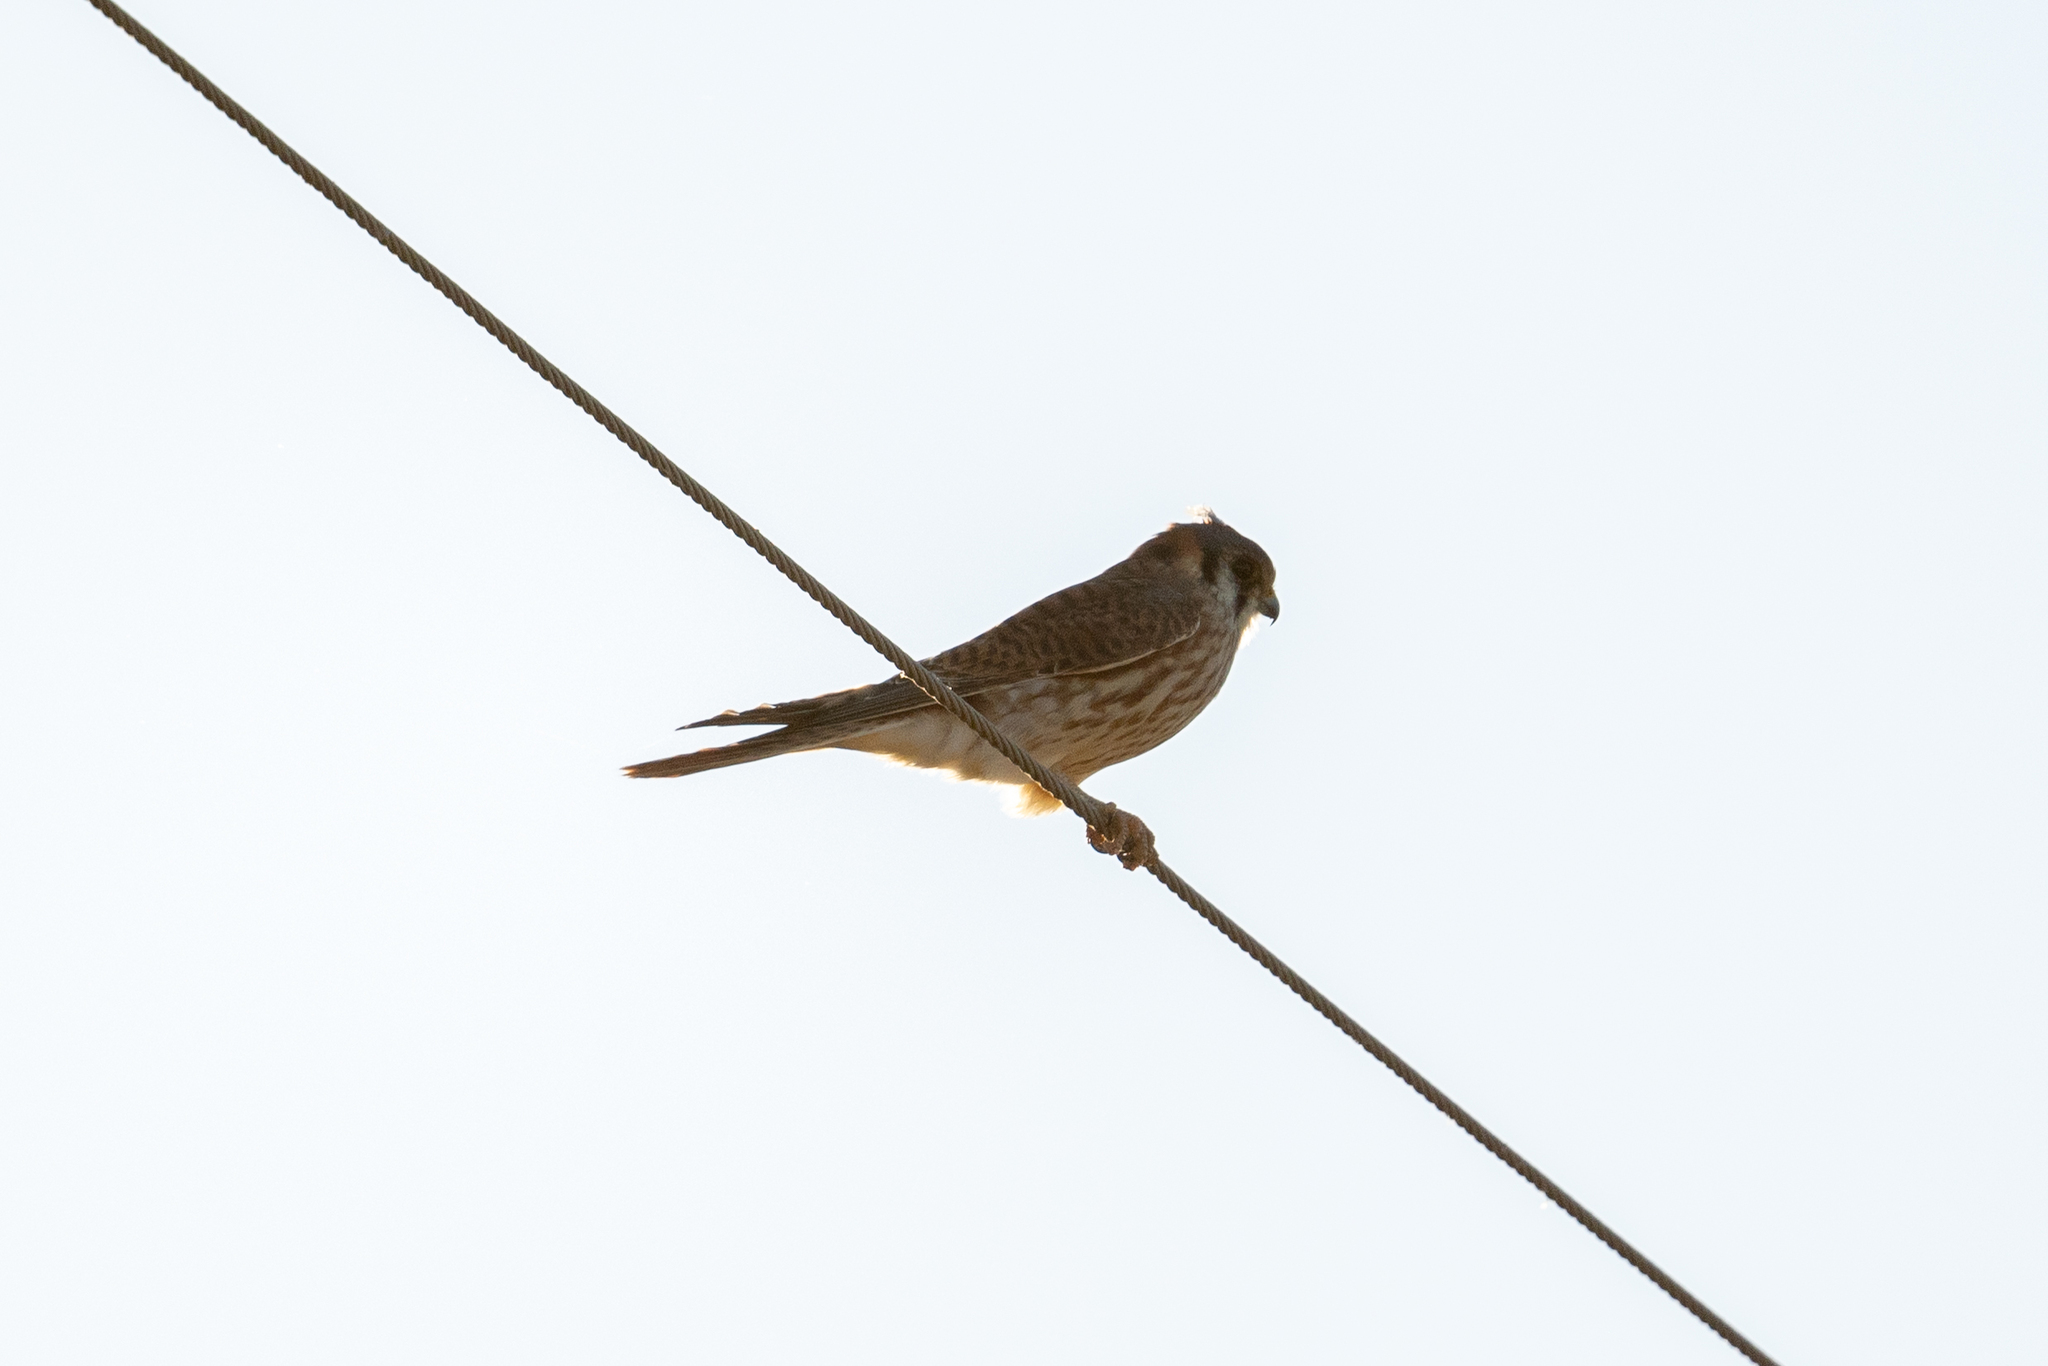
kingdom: Animalia
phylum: Chordata
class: Aves
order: Falconiformes
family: Falconidae
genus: Falco
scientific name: Falco sparverius
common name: American kestrel
